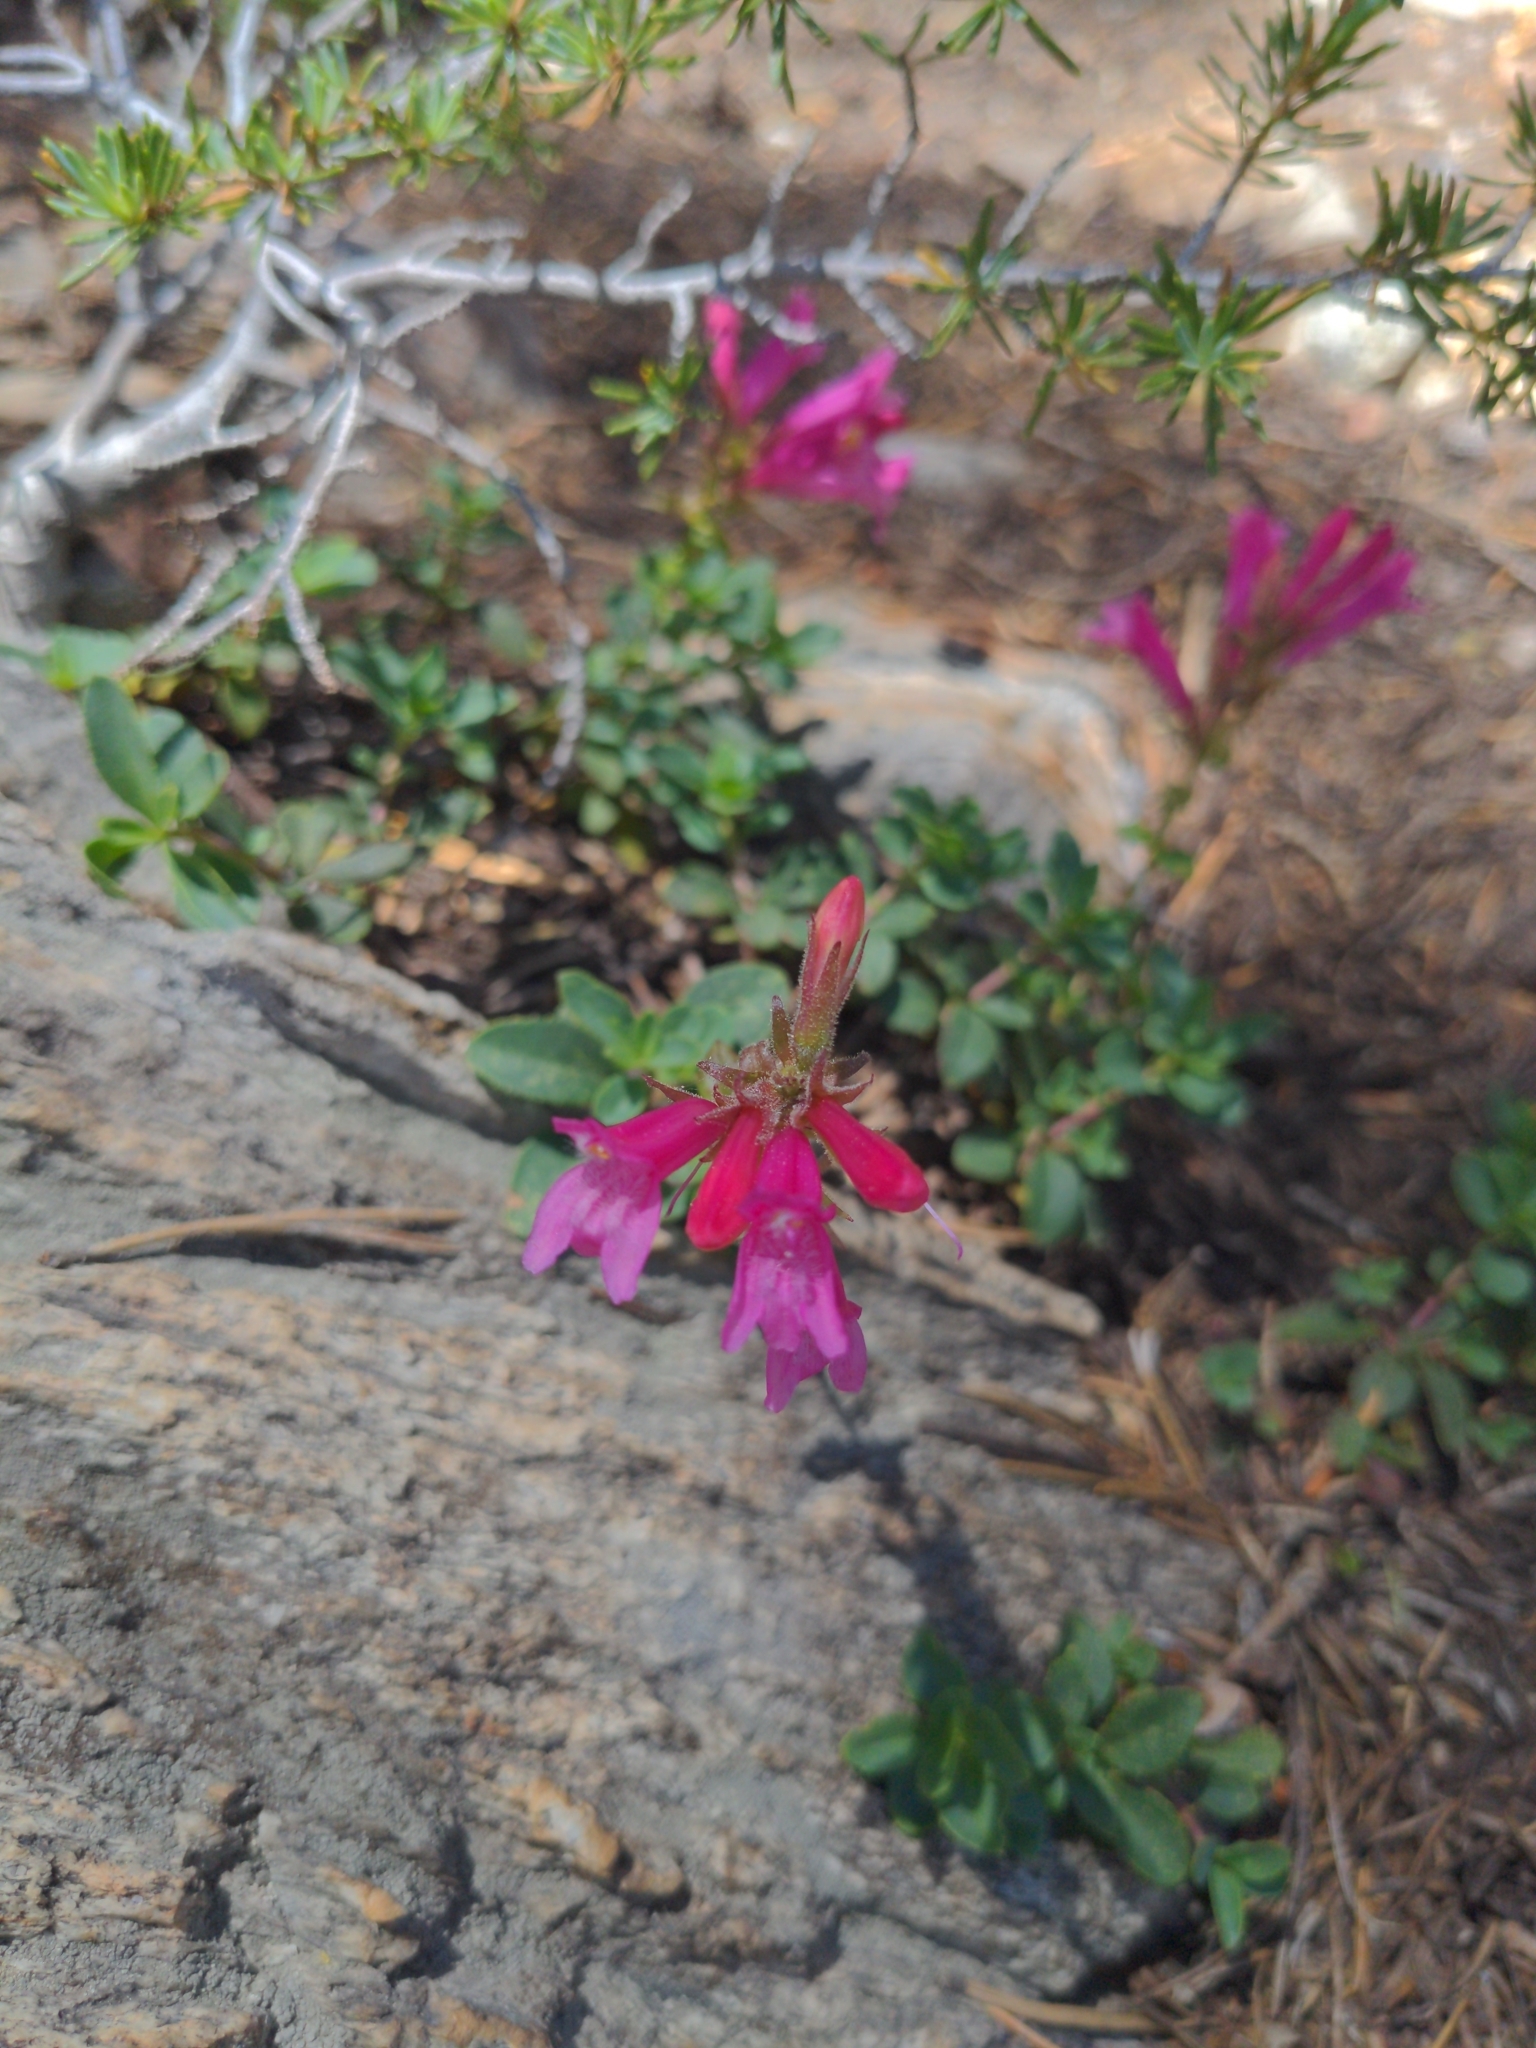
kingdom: Plantae
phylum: Tracheophyta
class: Magnoliopsida
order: Lamiales
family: Plantaginaceae
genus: Penstemon
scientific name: Penstemon newberryi
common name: Mountain-pride
